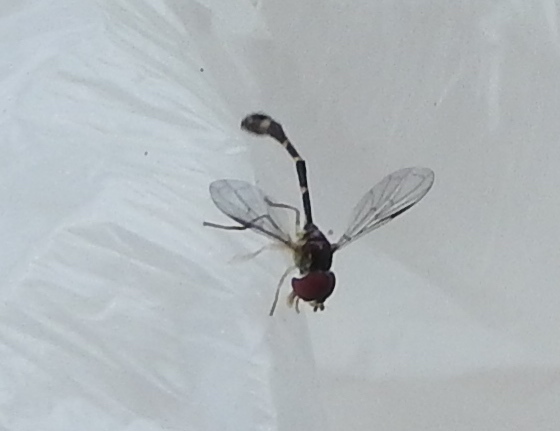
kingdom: Animalia
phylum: Arthropoda
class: Insecta
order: Diptera
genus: Bacchina
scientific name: Bacchina
